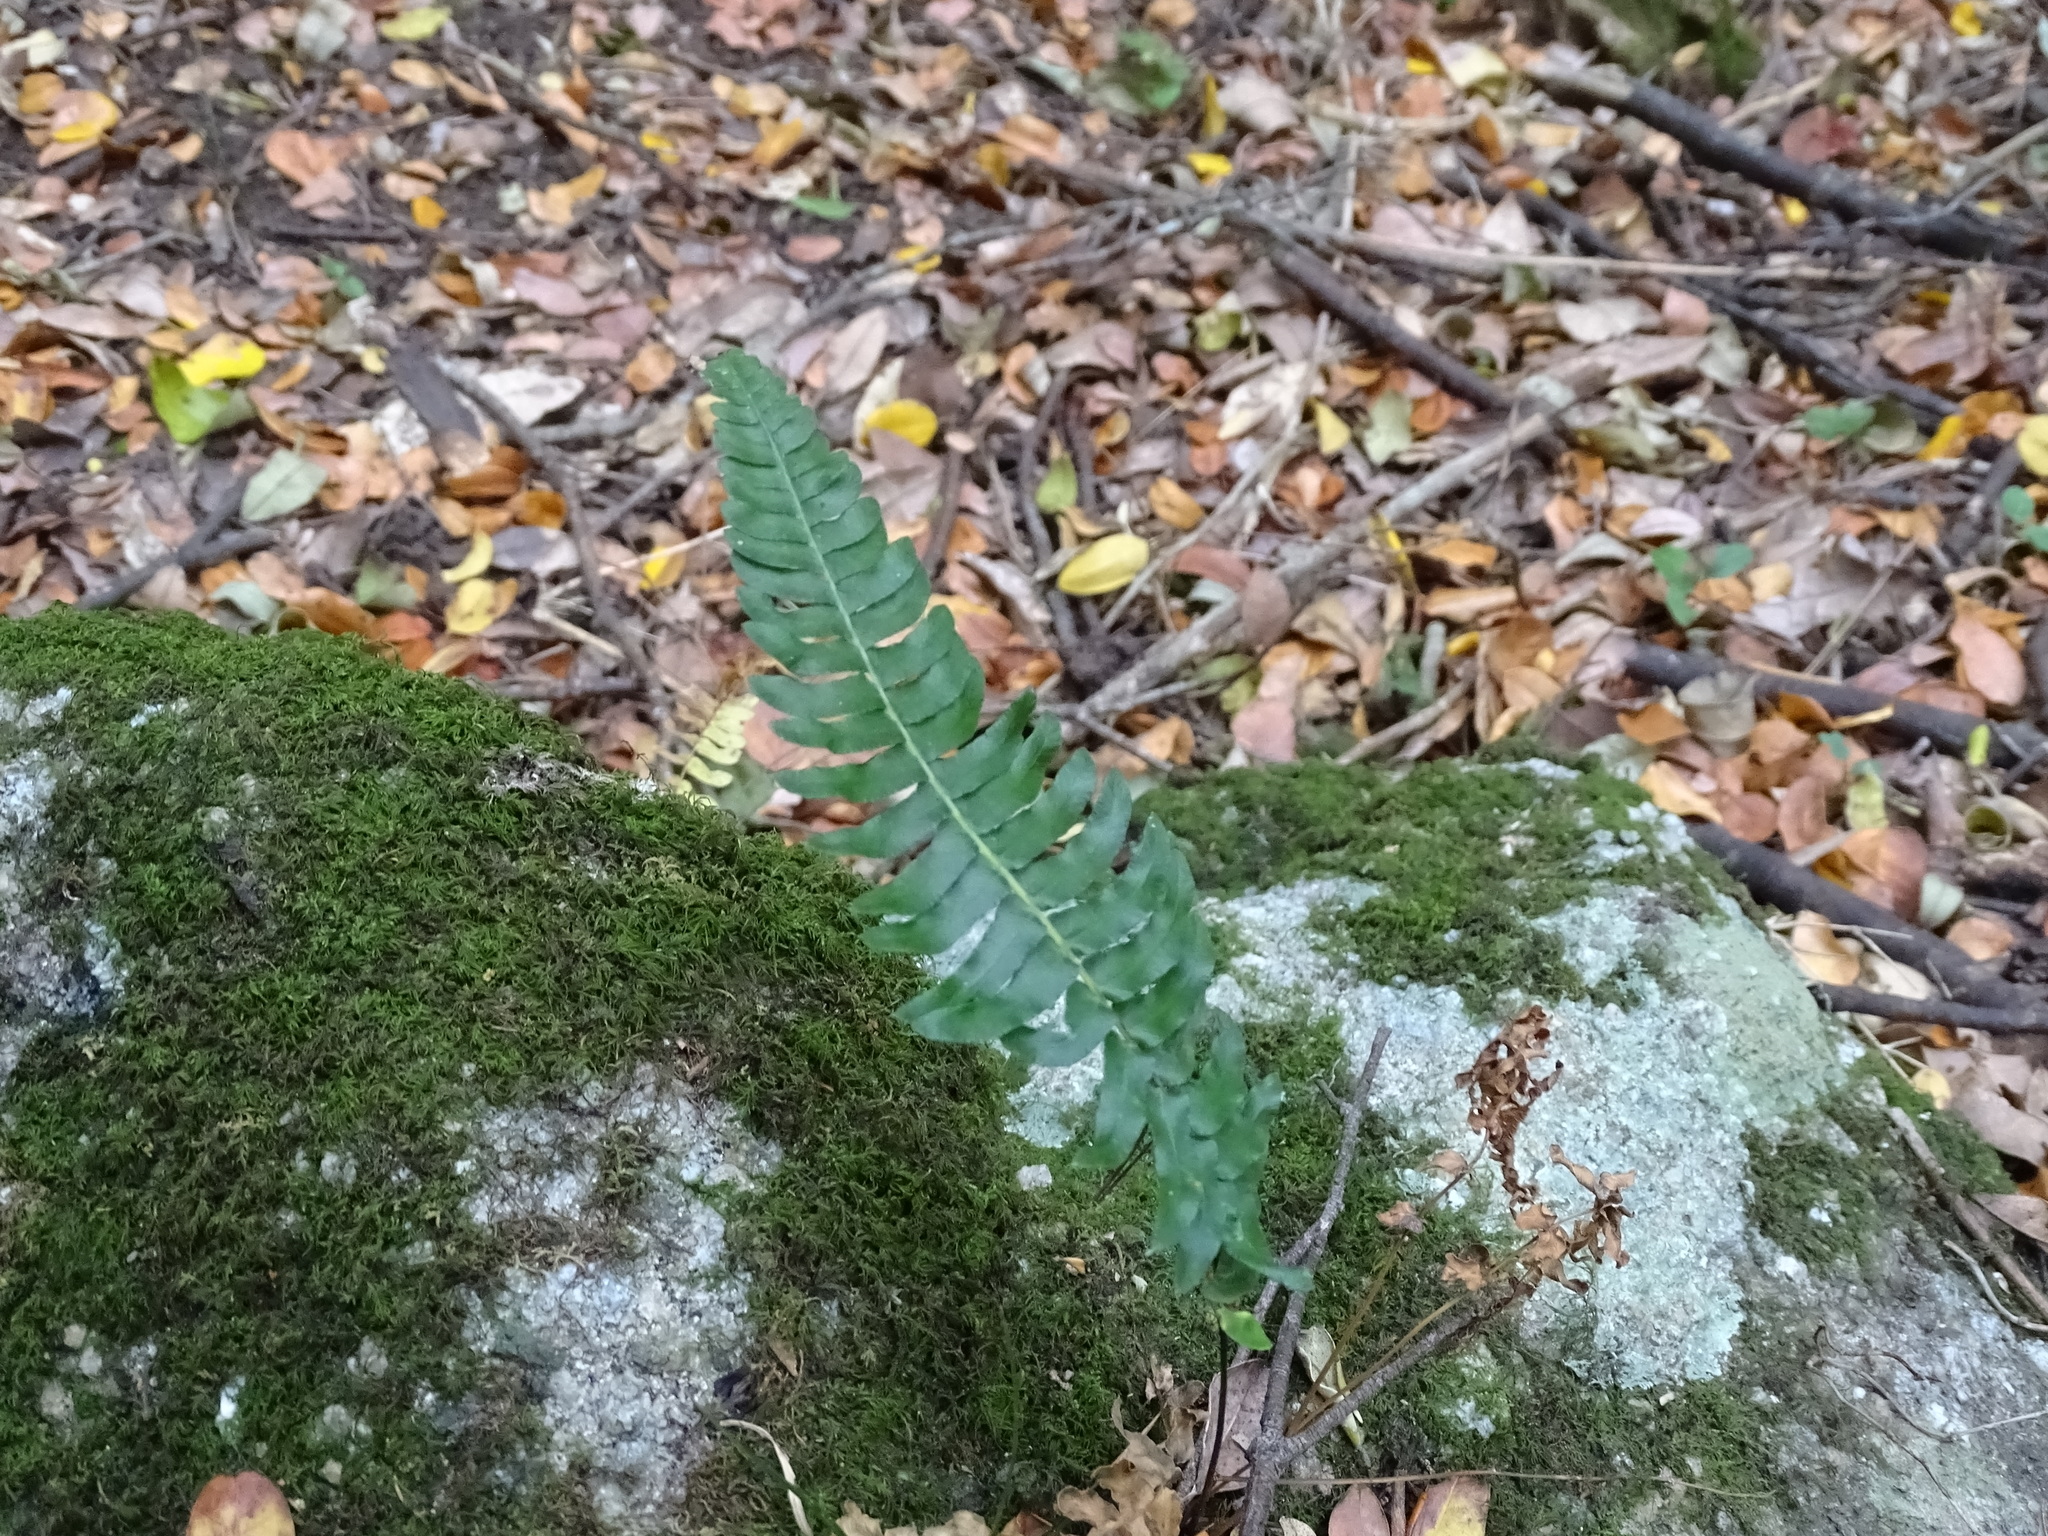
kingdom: Plantae
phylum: Tracheophyta
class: Polypodiopsida
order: Polypodiales
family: Blechnaceae
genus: Blechnum
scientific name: Blechnum hastatum
